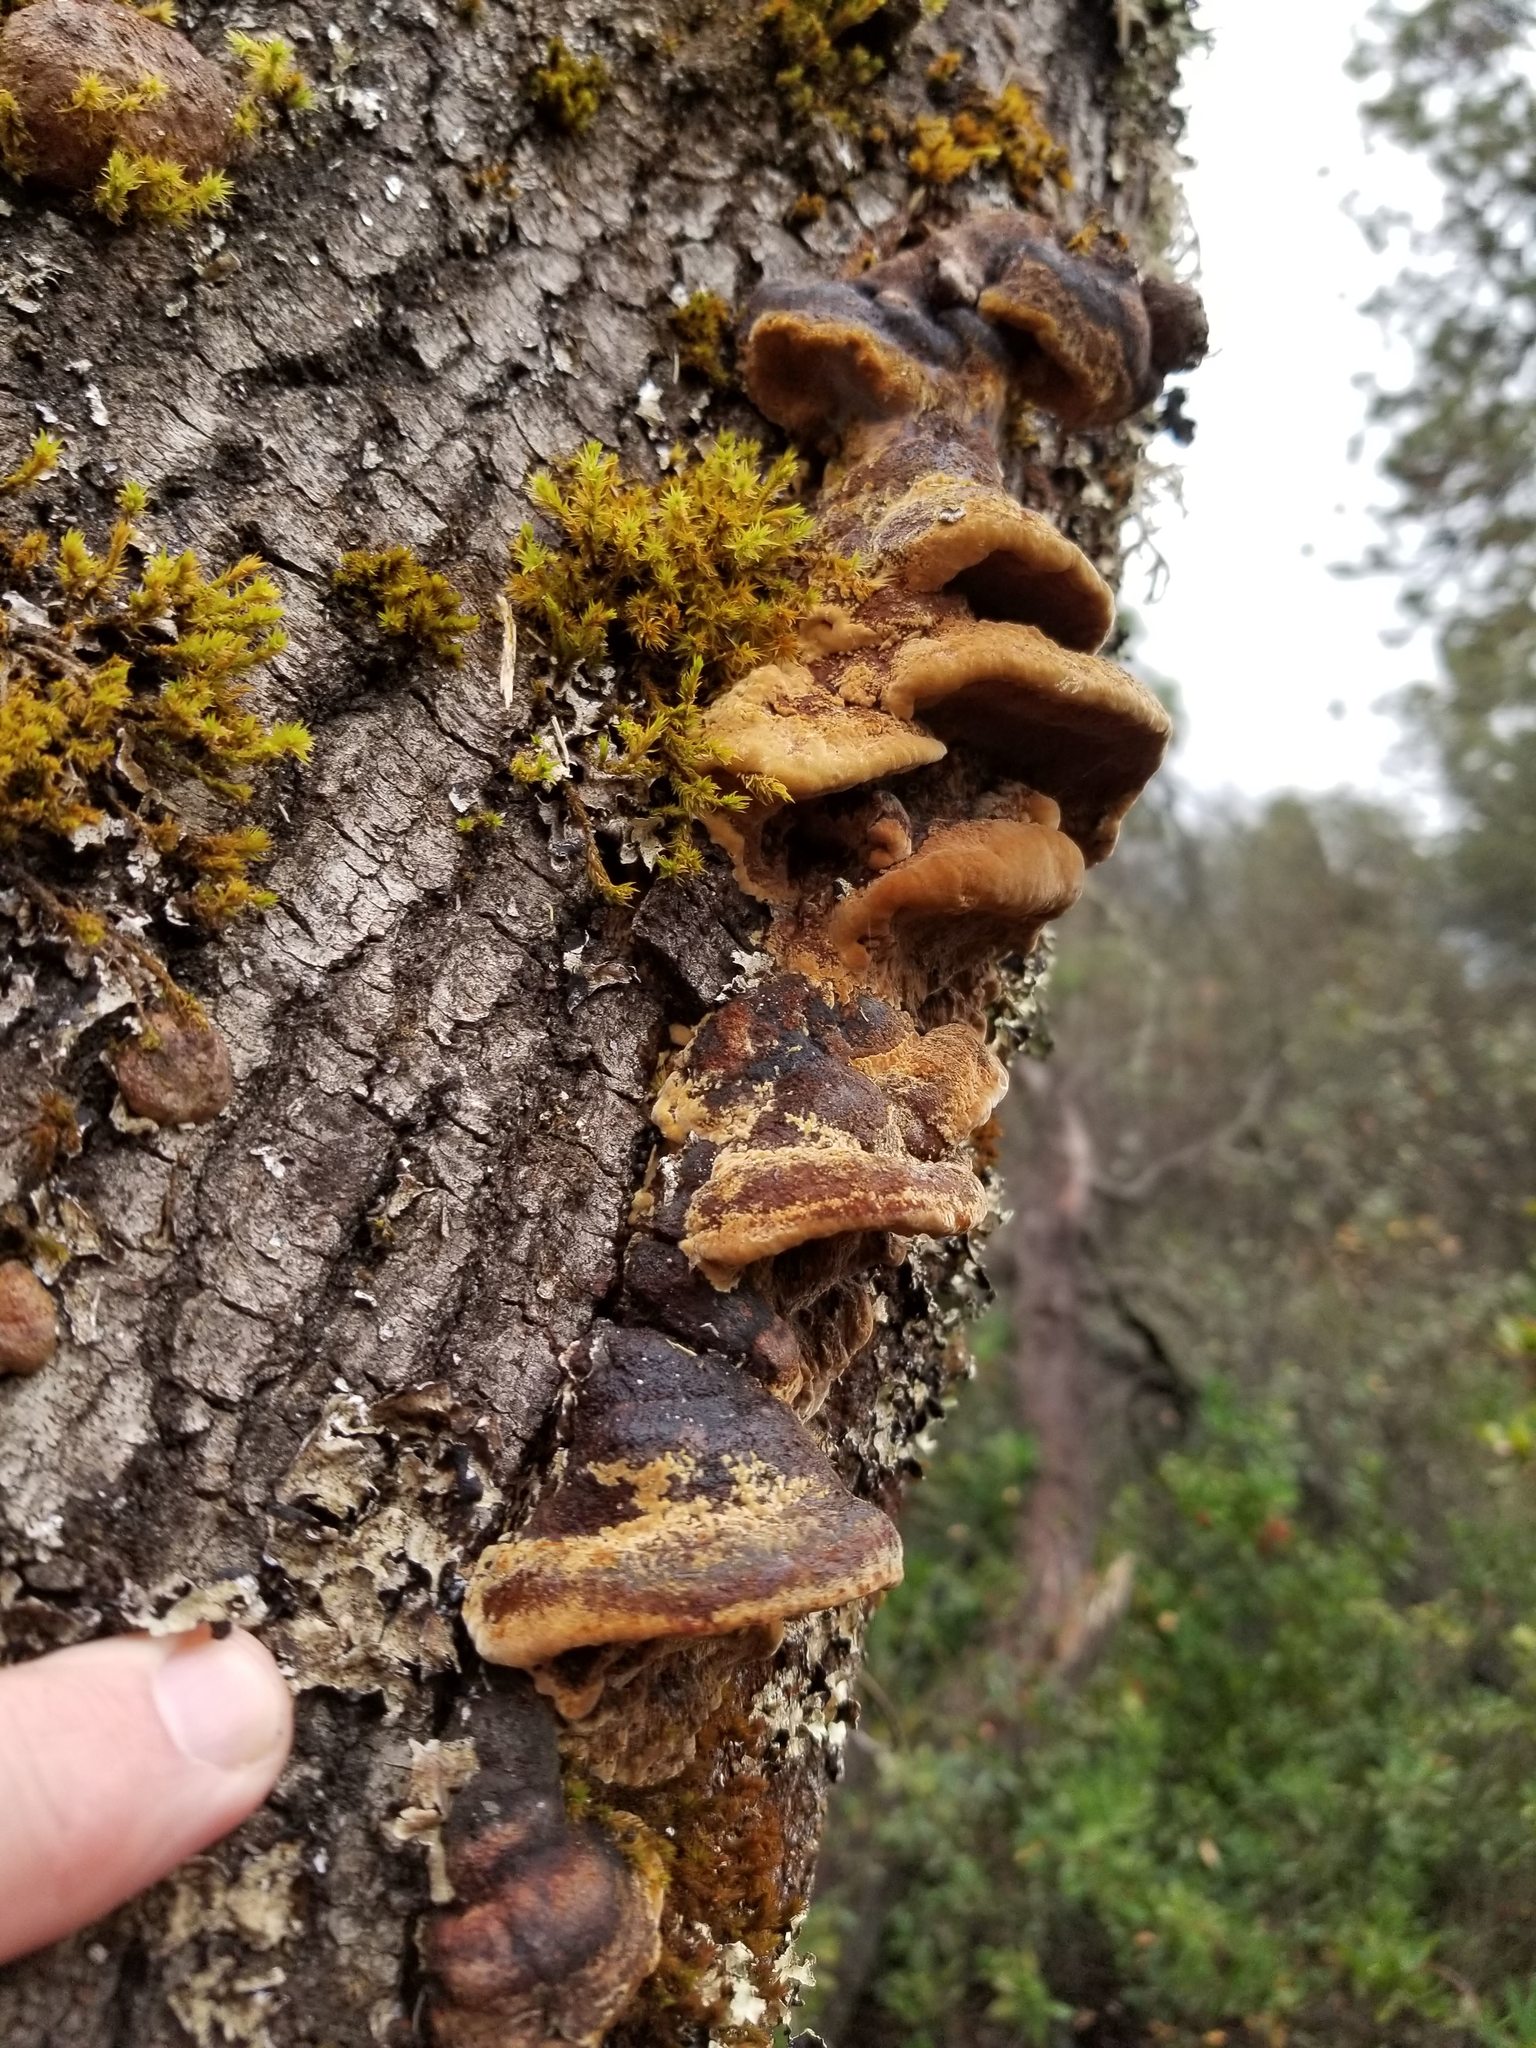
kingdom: Fungi
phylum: Basidiomycota
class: Agaricomycetes
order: Hymenochaetales
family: Hymenochaetaceae
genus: Phellinus
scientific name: Phellinus gilvus
